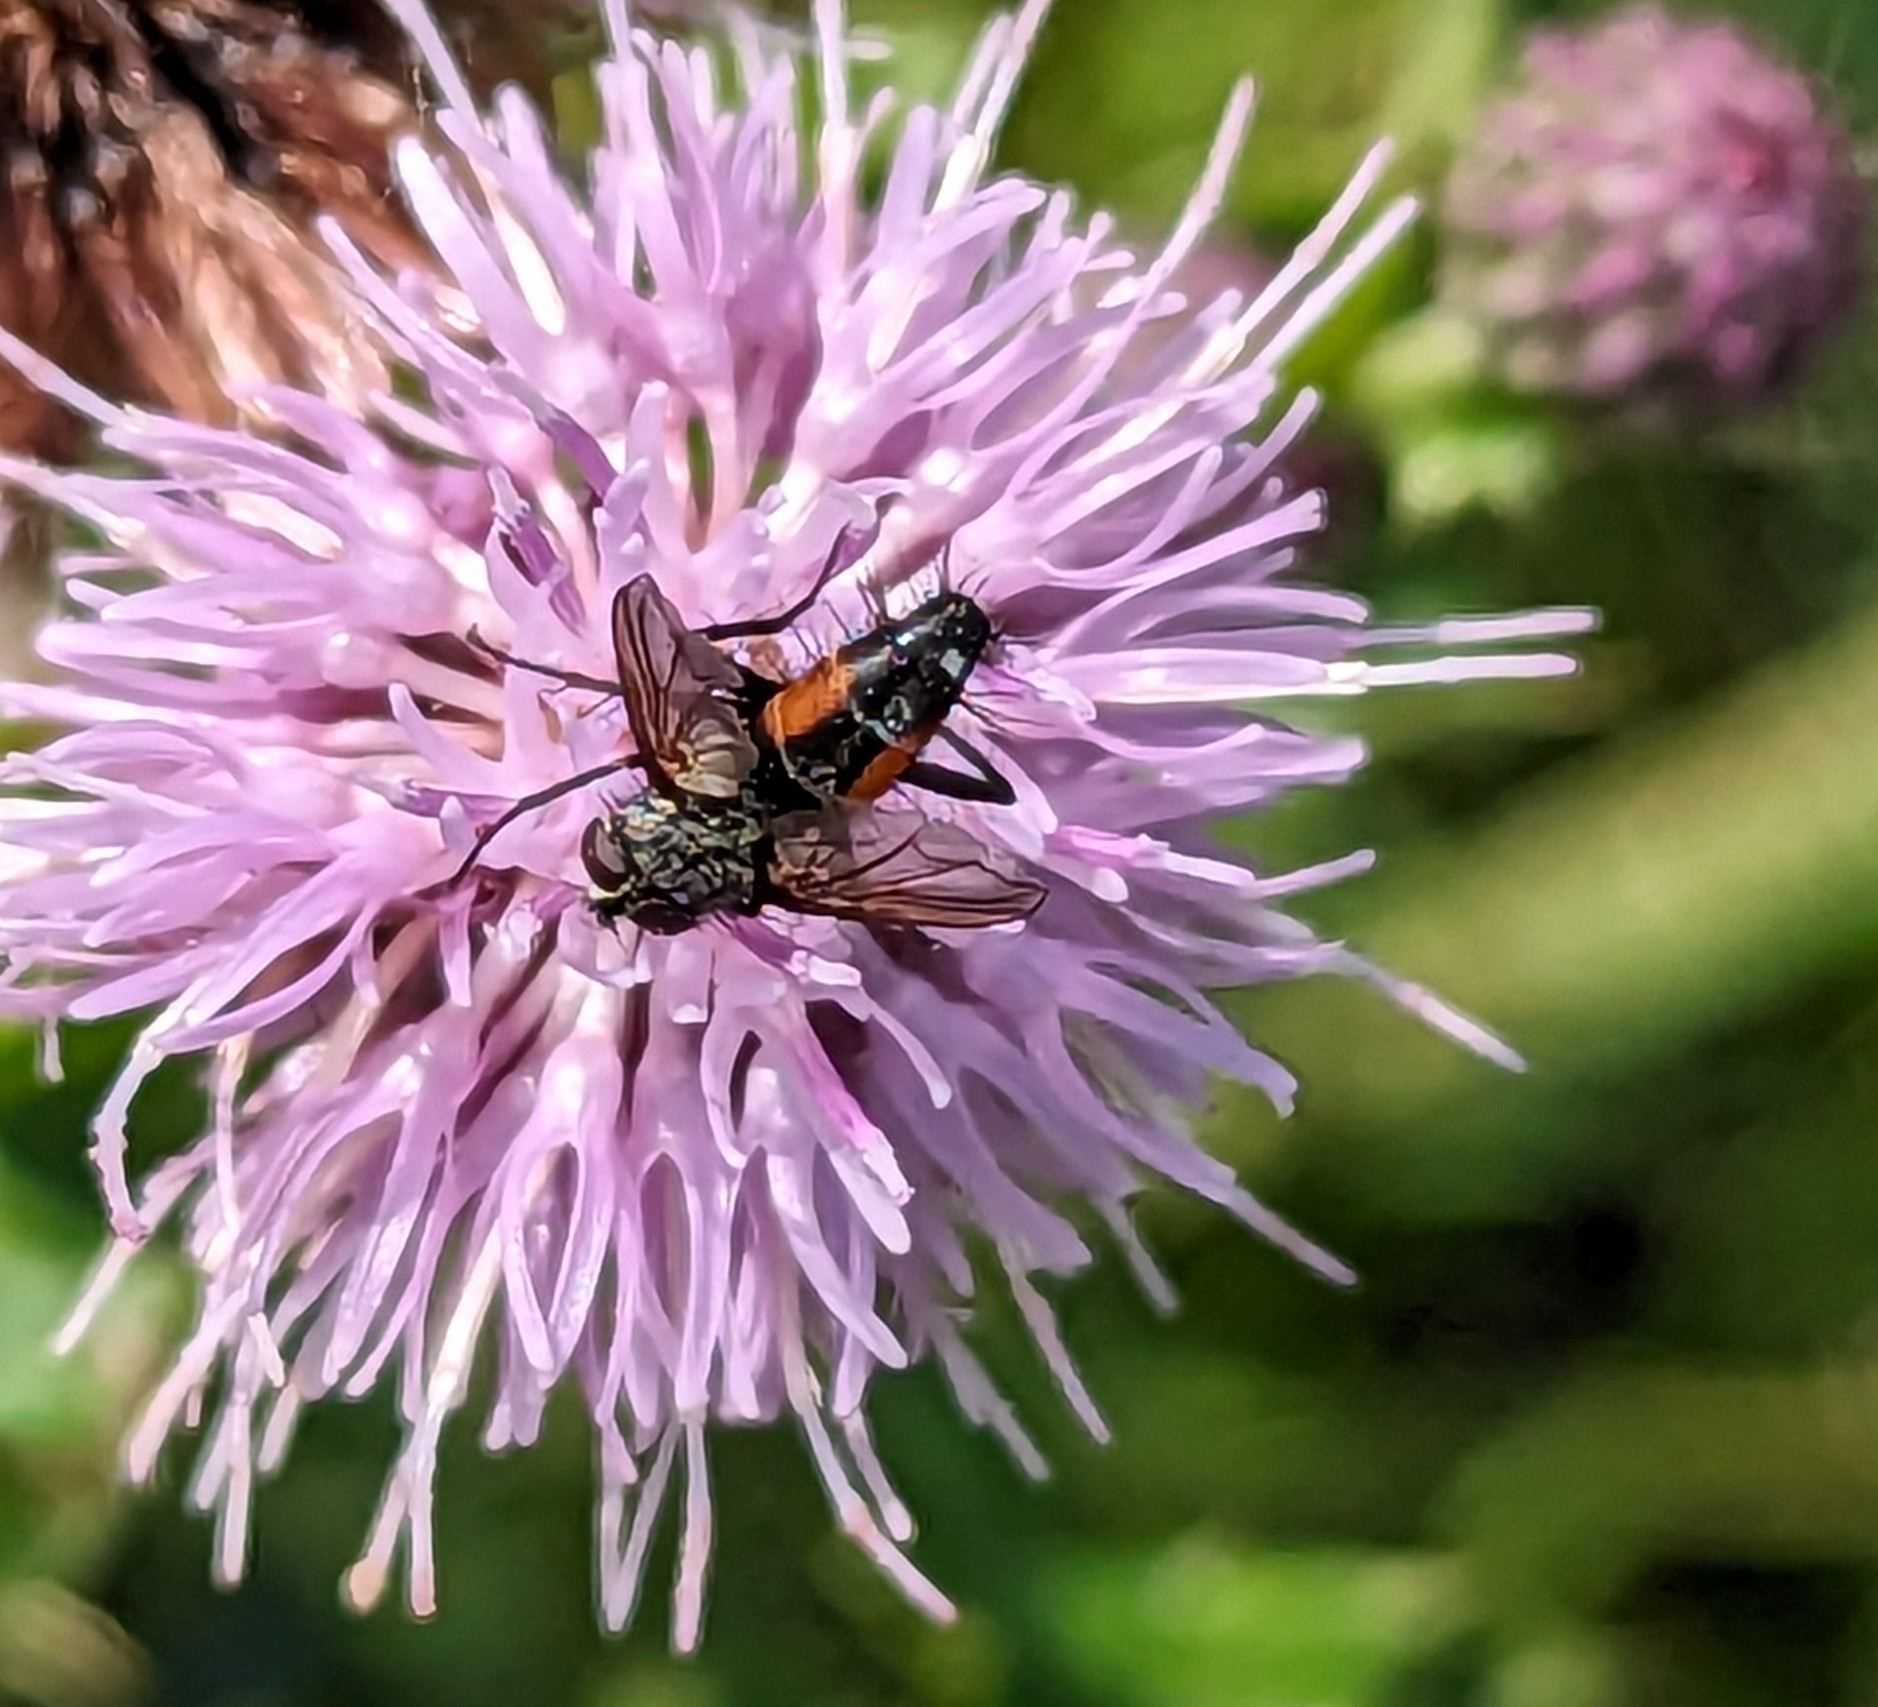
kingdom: Animalia
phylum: Arthropoda
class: Insecta
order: Diptera
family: Tachinidae
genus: Eriothrix
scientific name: Eriothrix rufomaculatus
